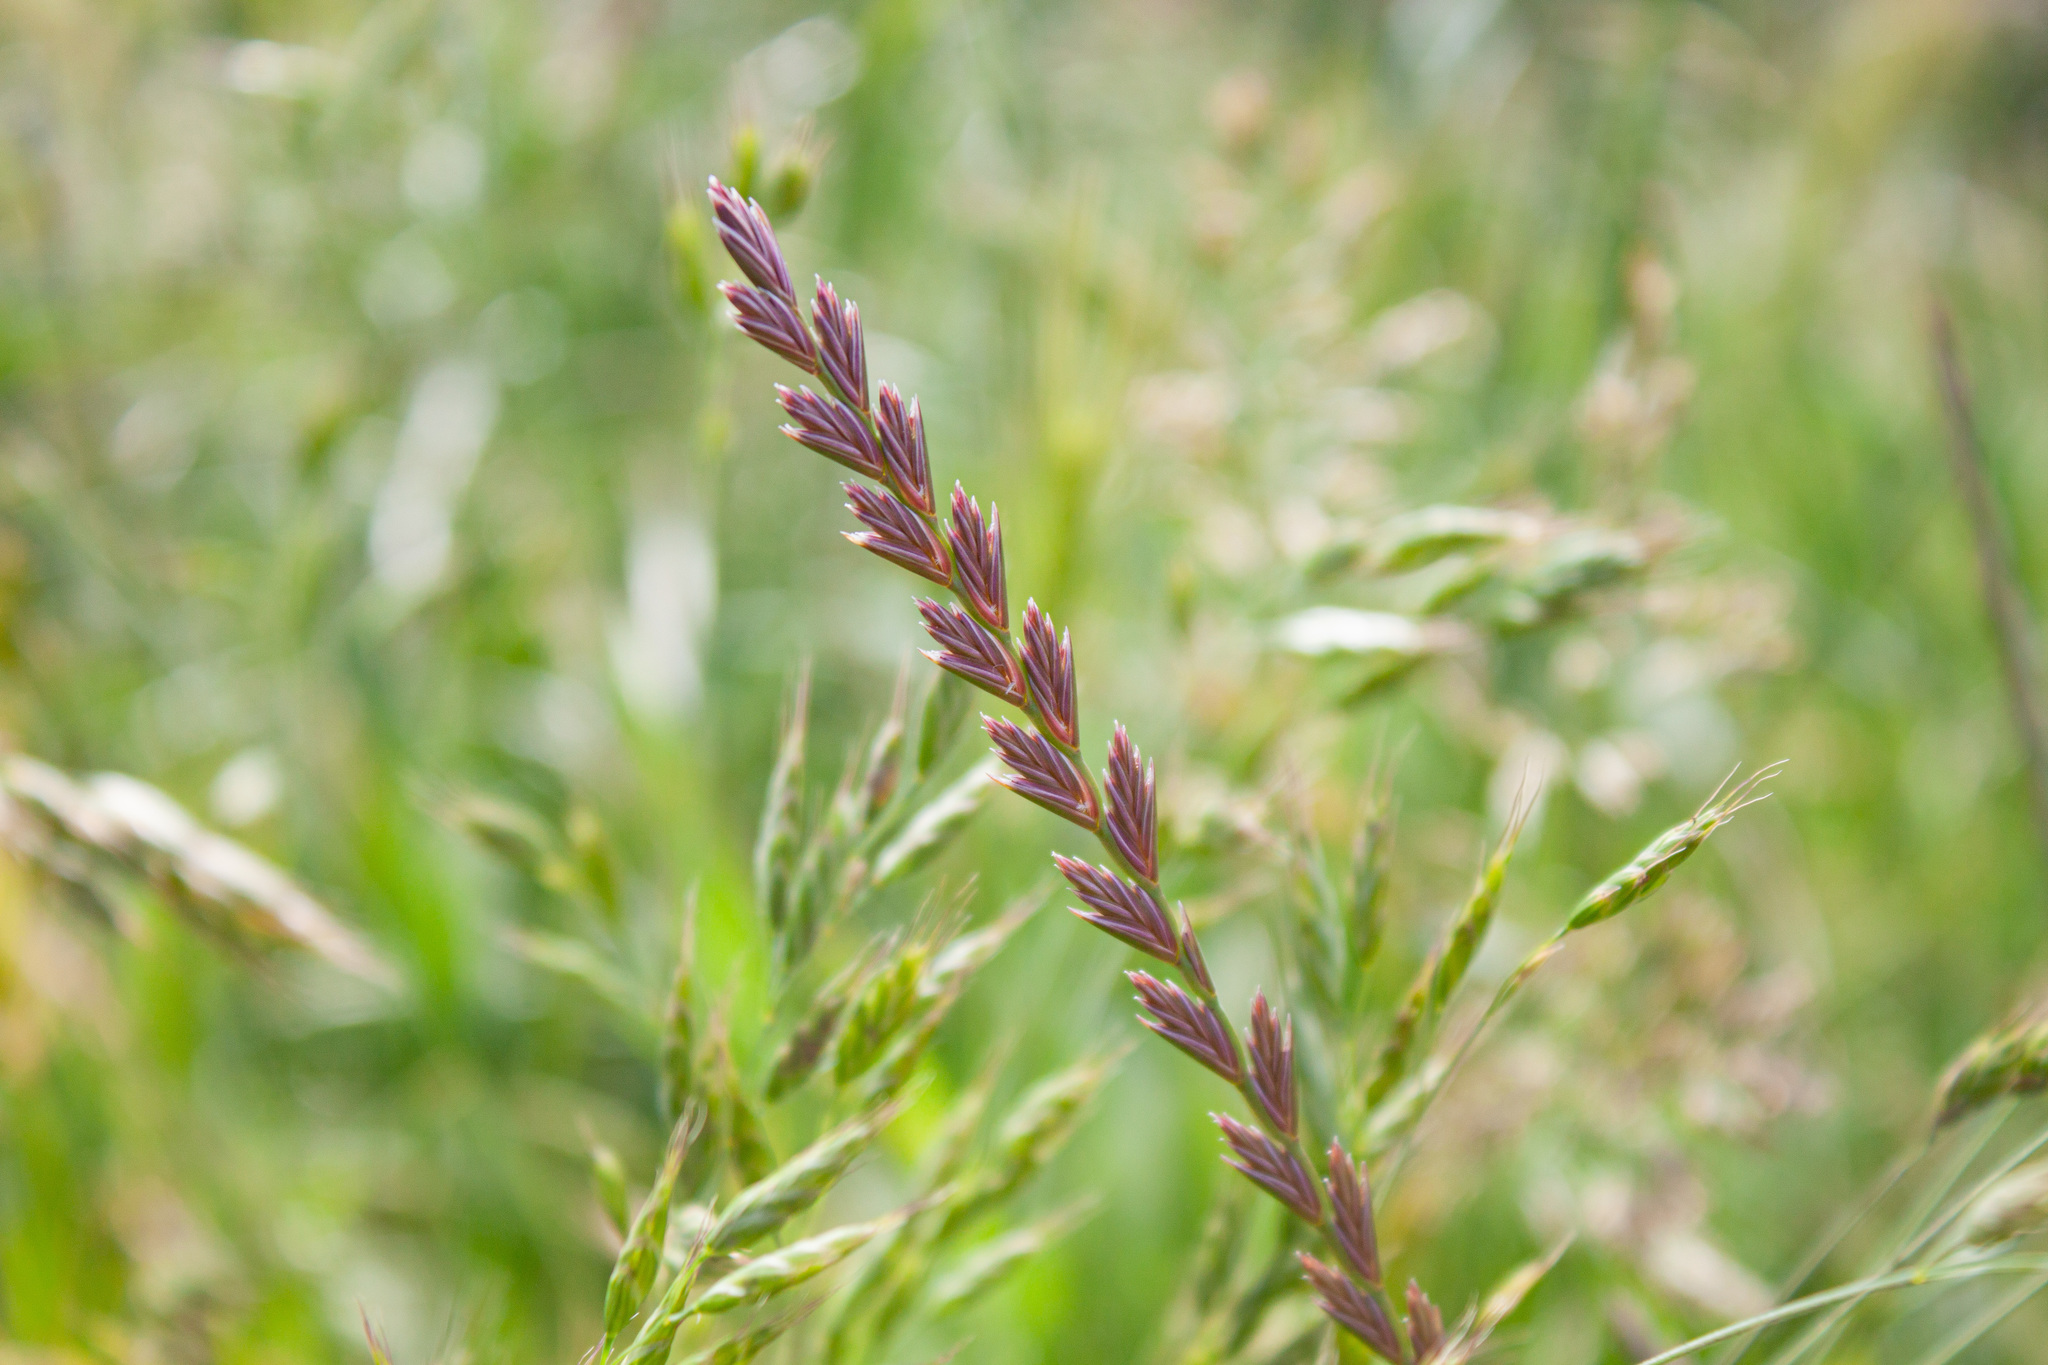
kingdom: Plantae
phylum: Tracheophyta
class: Liliopsida
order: Poales
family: Poaceae
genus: Lolium
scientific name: Lolium perenne
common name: Perennial ryegrass
